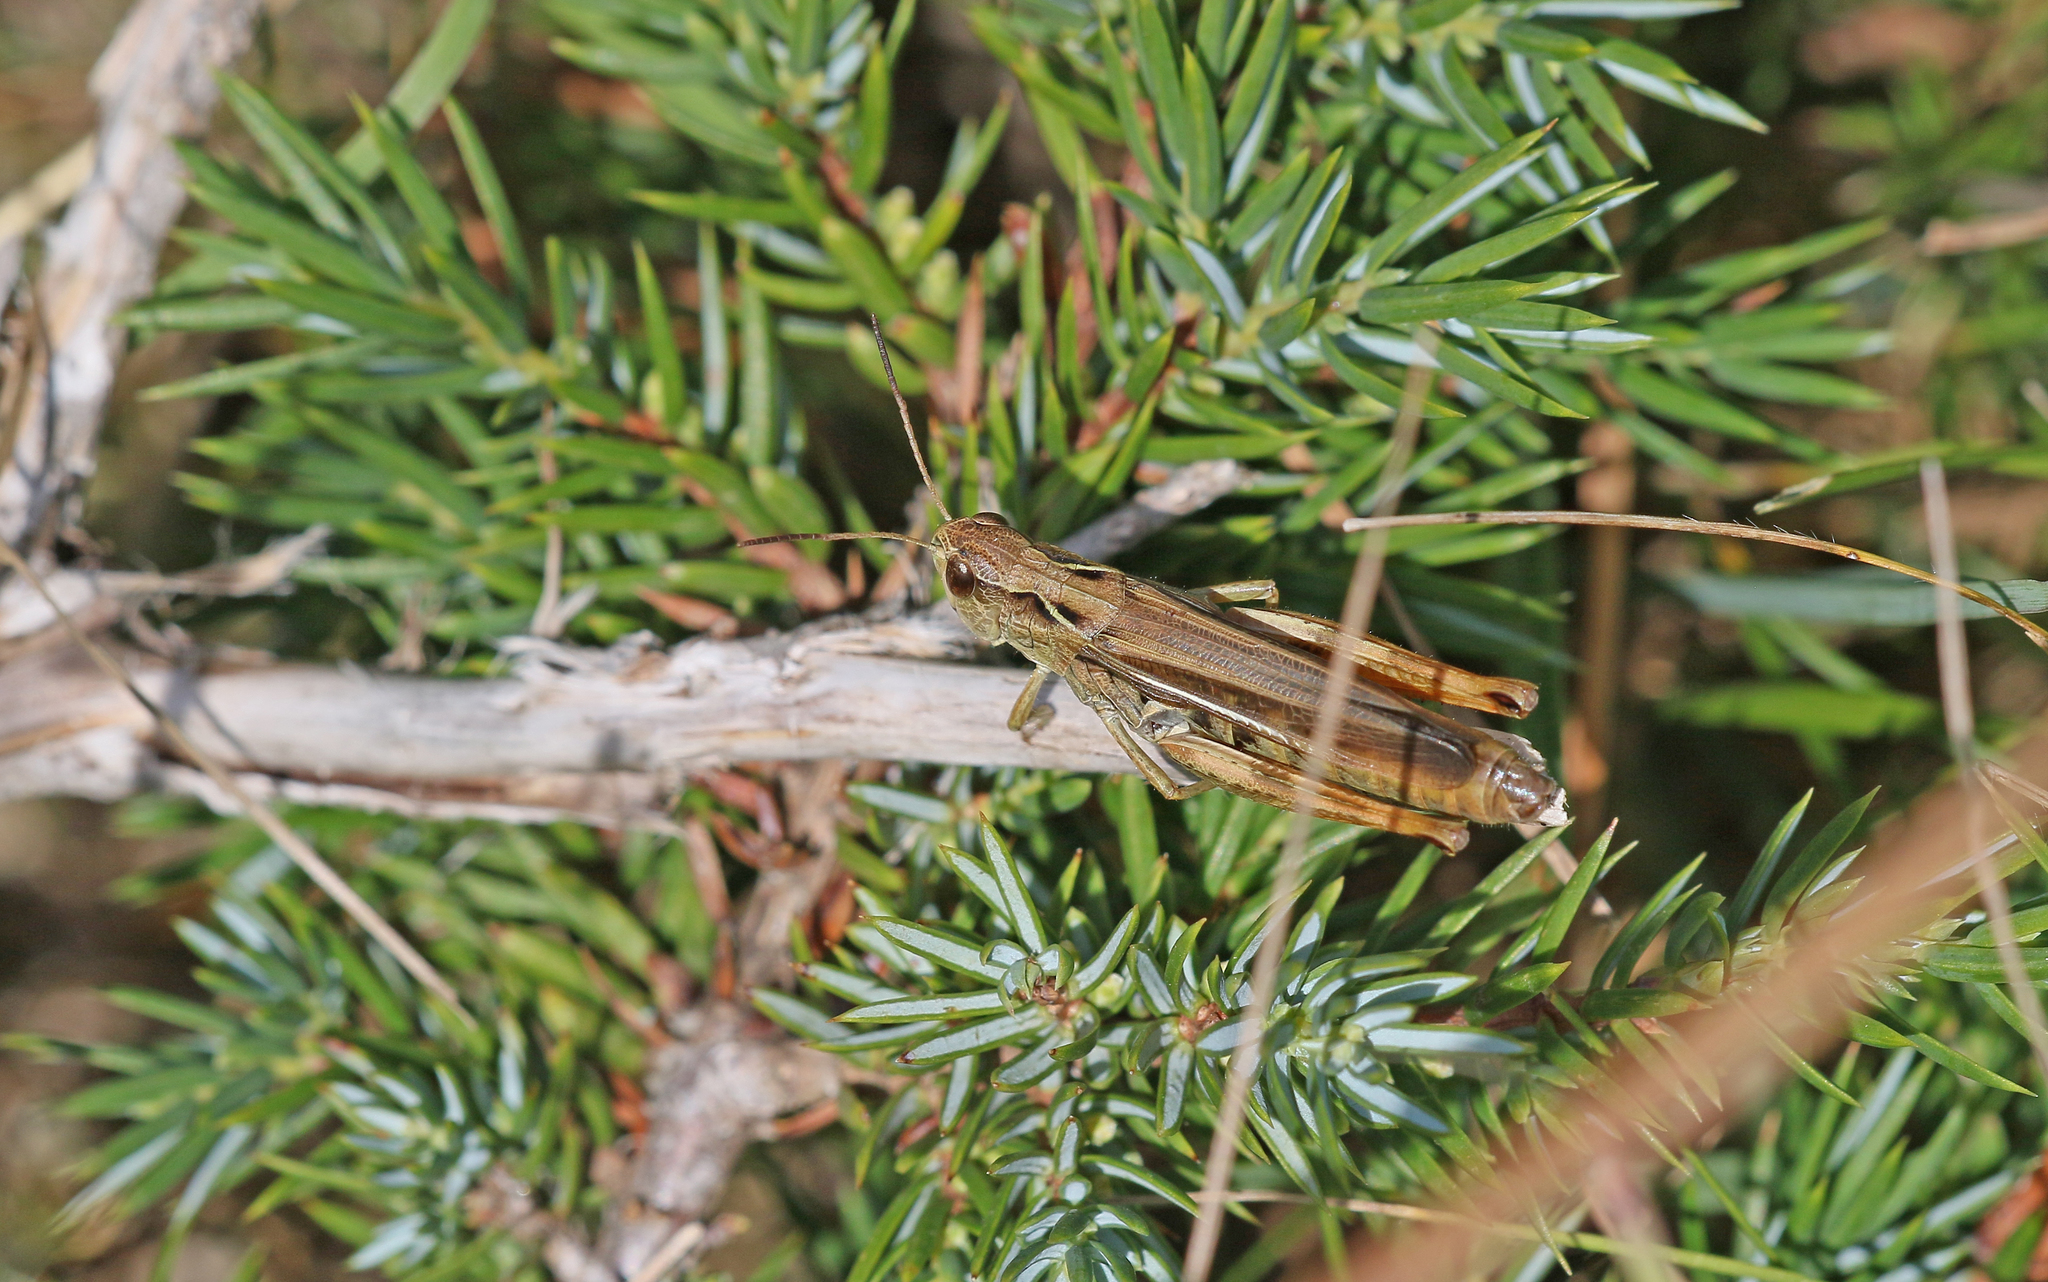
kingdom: Animalia
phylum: Arthropoda
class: Insecta
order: Orthoptera
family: Acrididae
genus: Stauroderus
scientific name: Stauroderus scalaris
